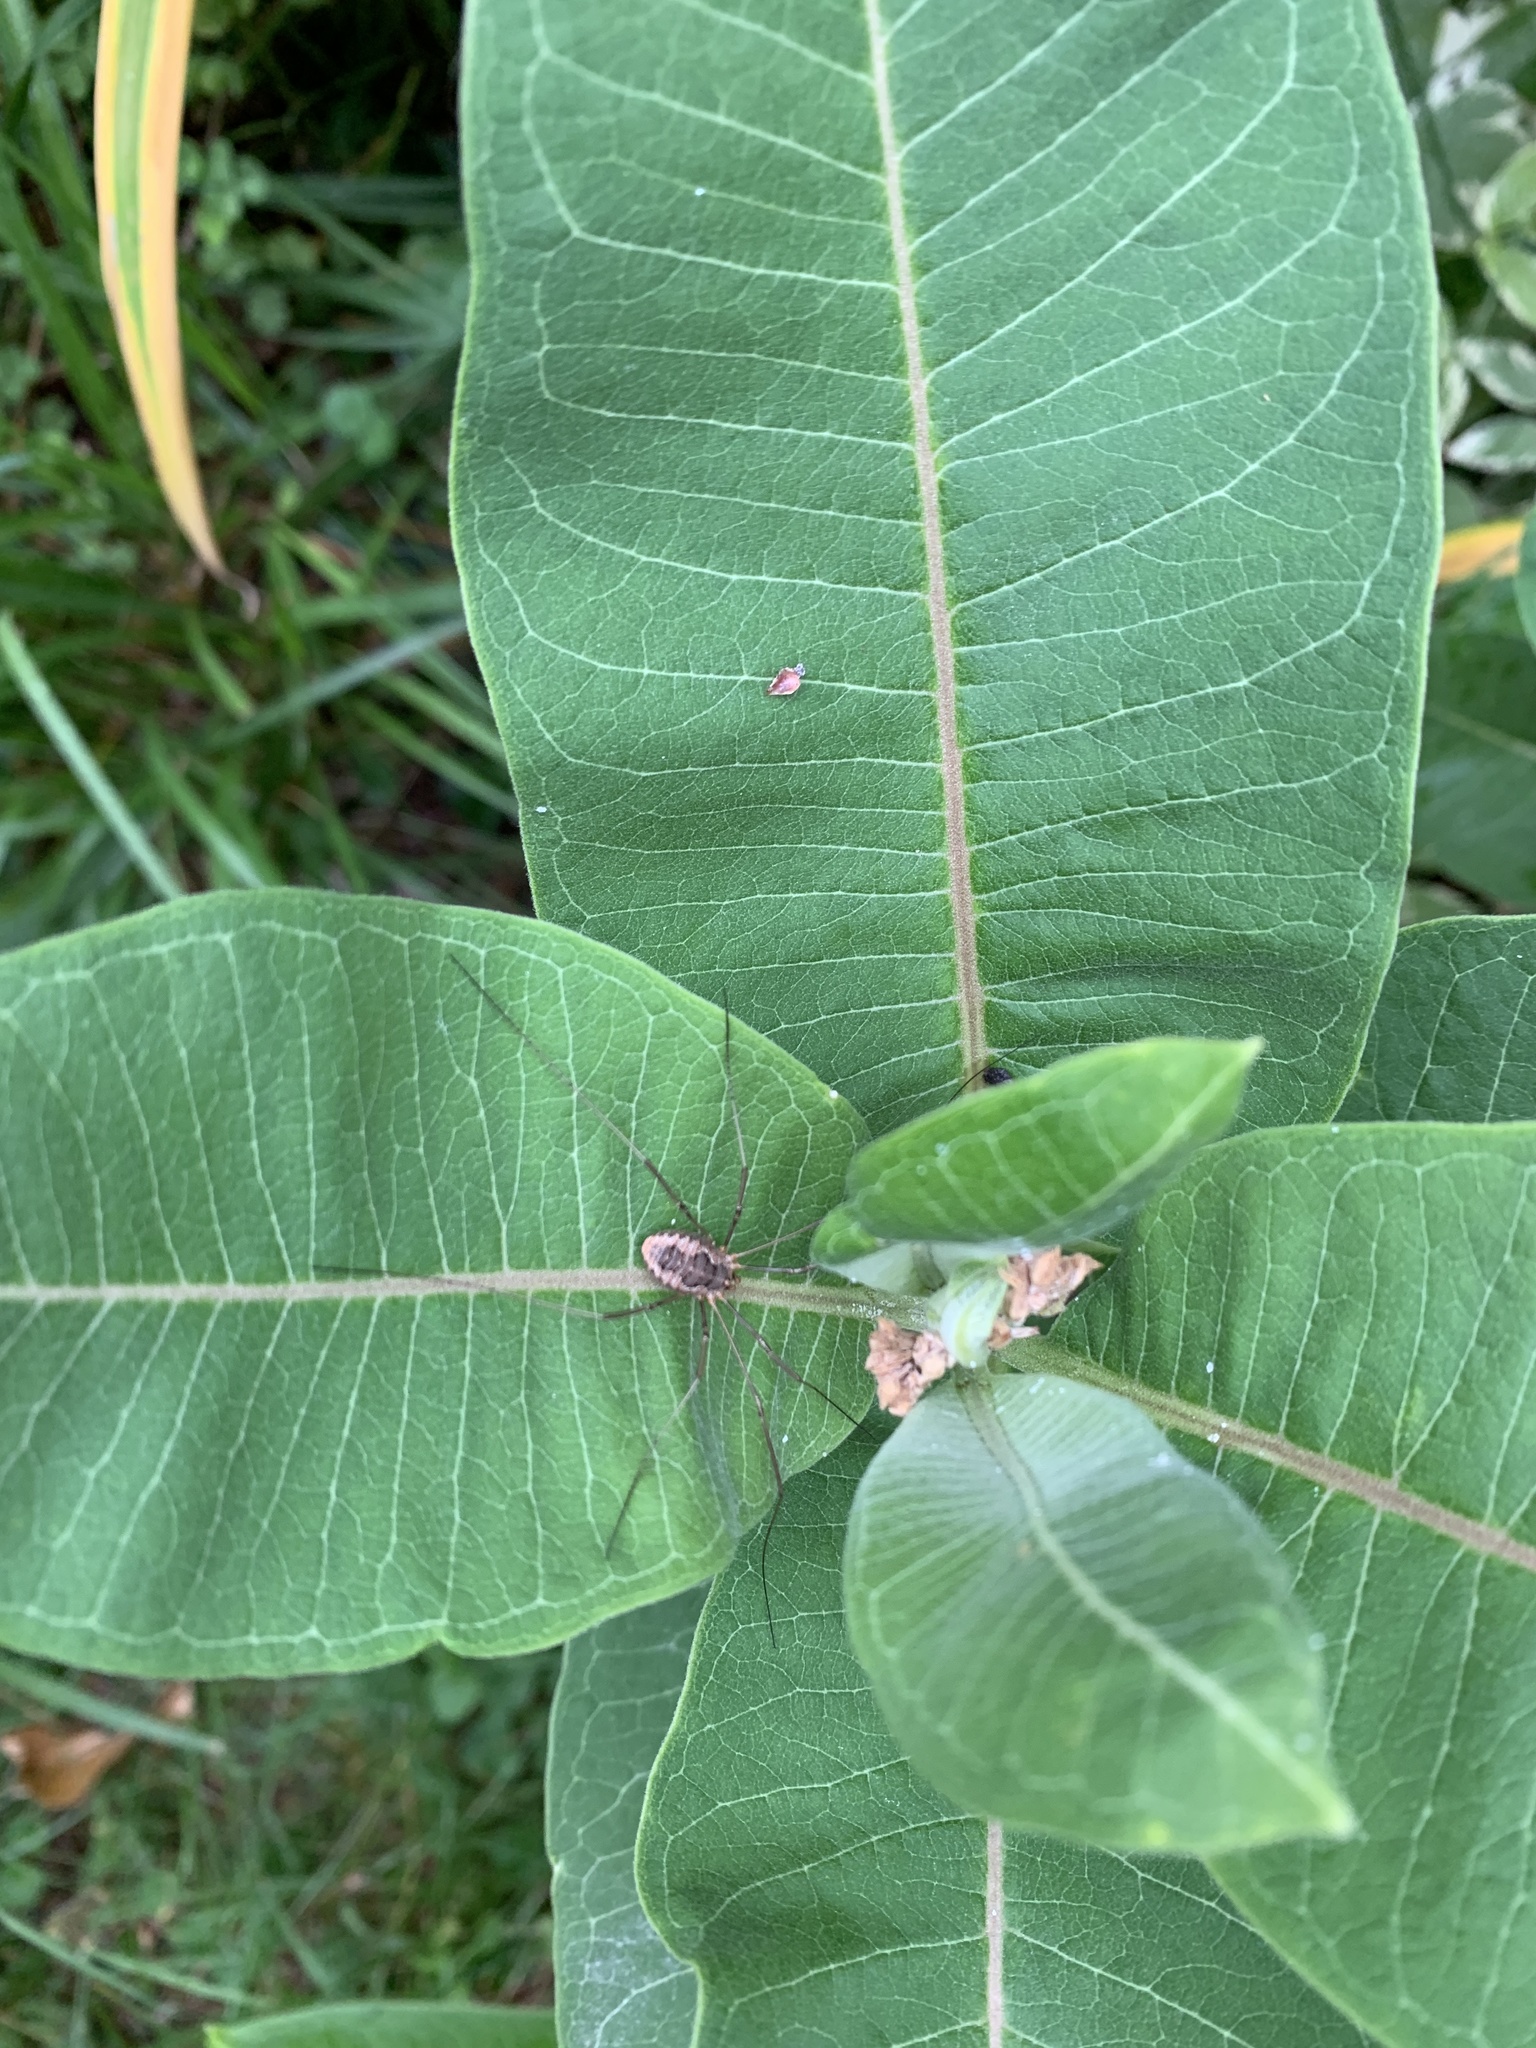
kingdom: Animalia
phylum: Arthropoda
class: Arachnida
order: Opiliones
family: Phalangiidae
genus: Phalangium
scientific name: Phalangium opilio
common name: Daddy longleg
